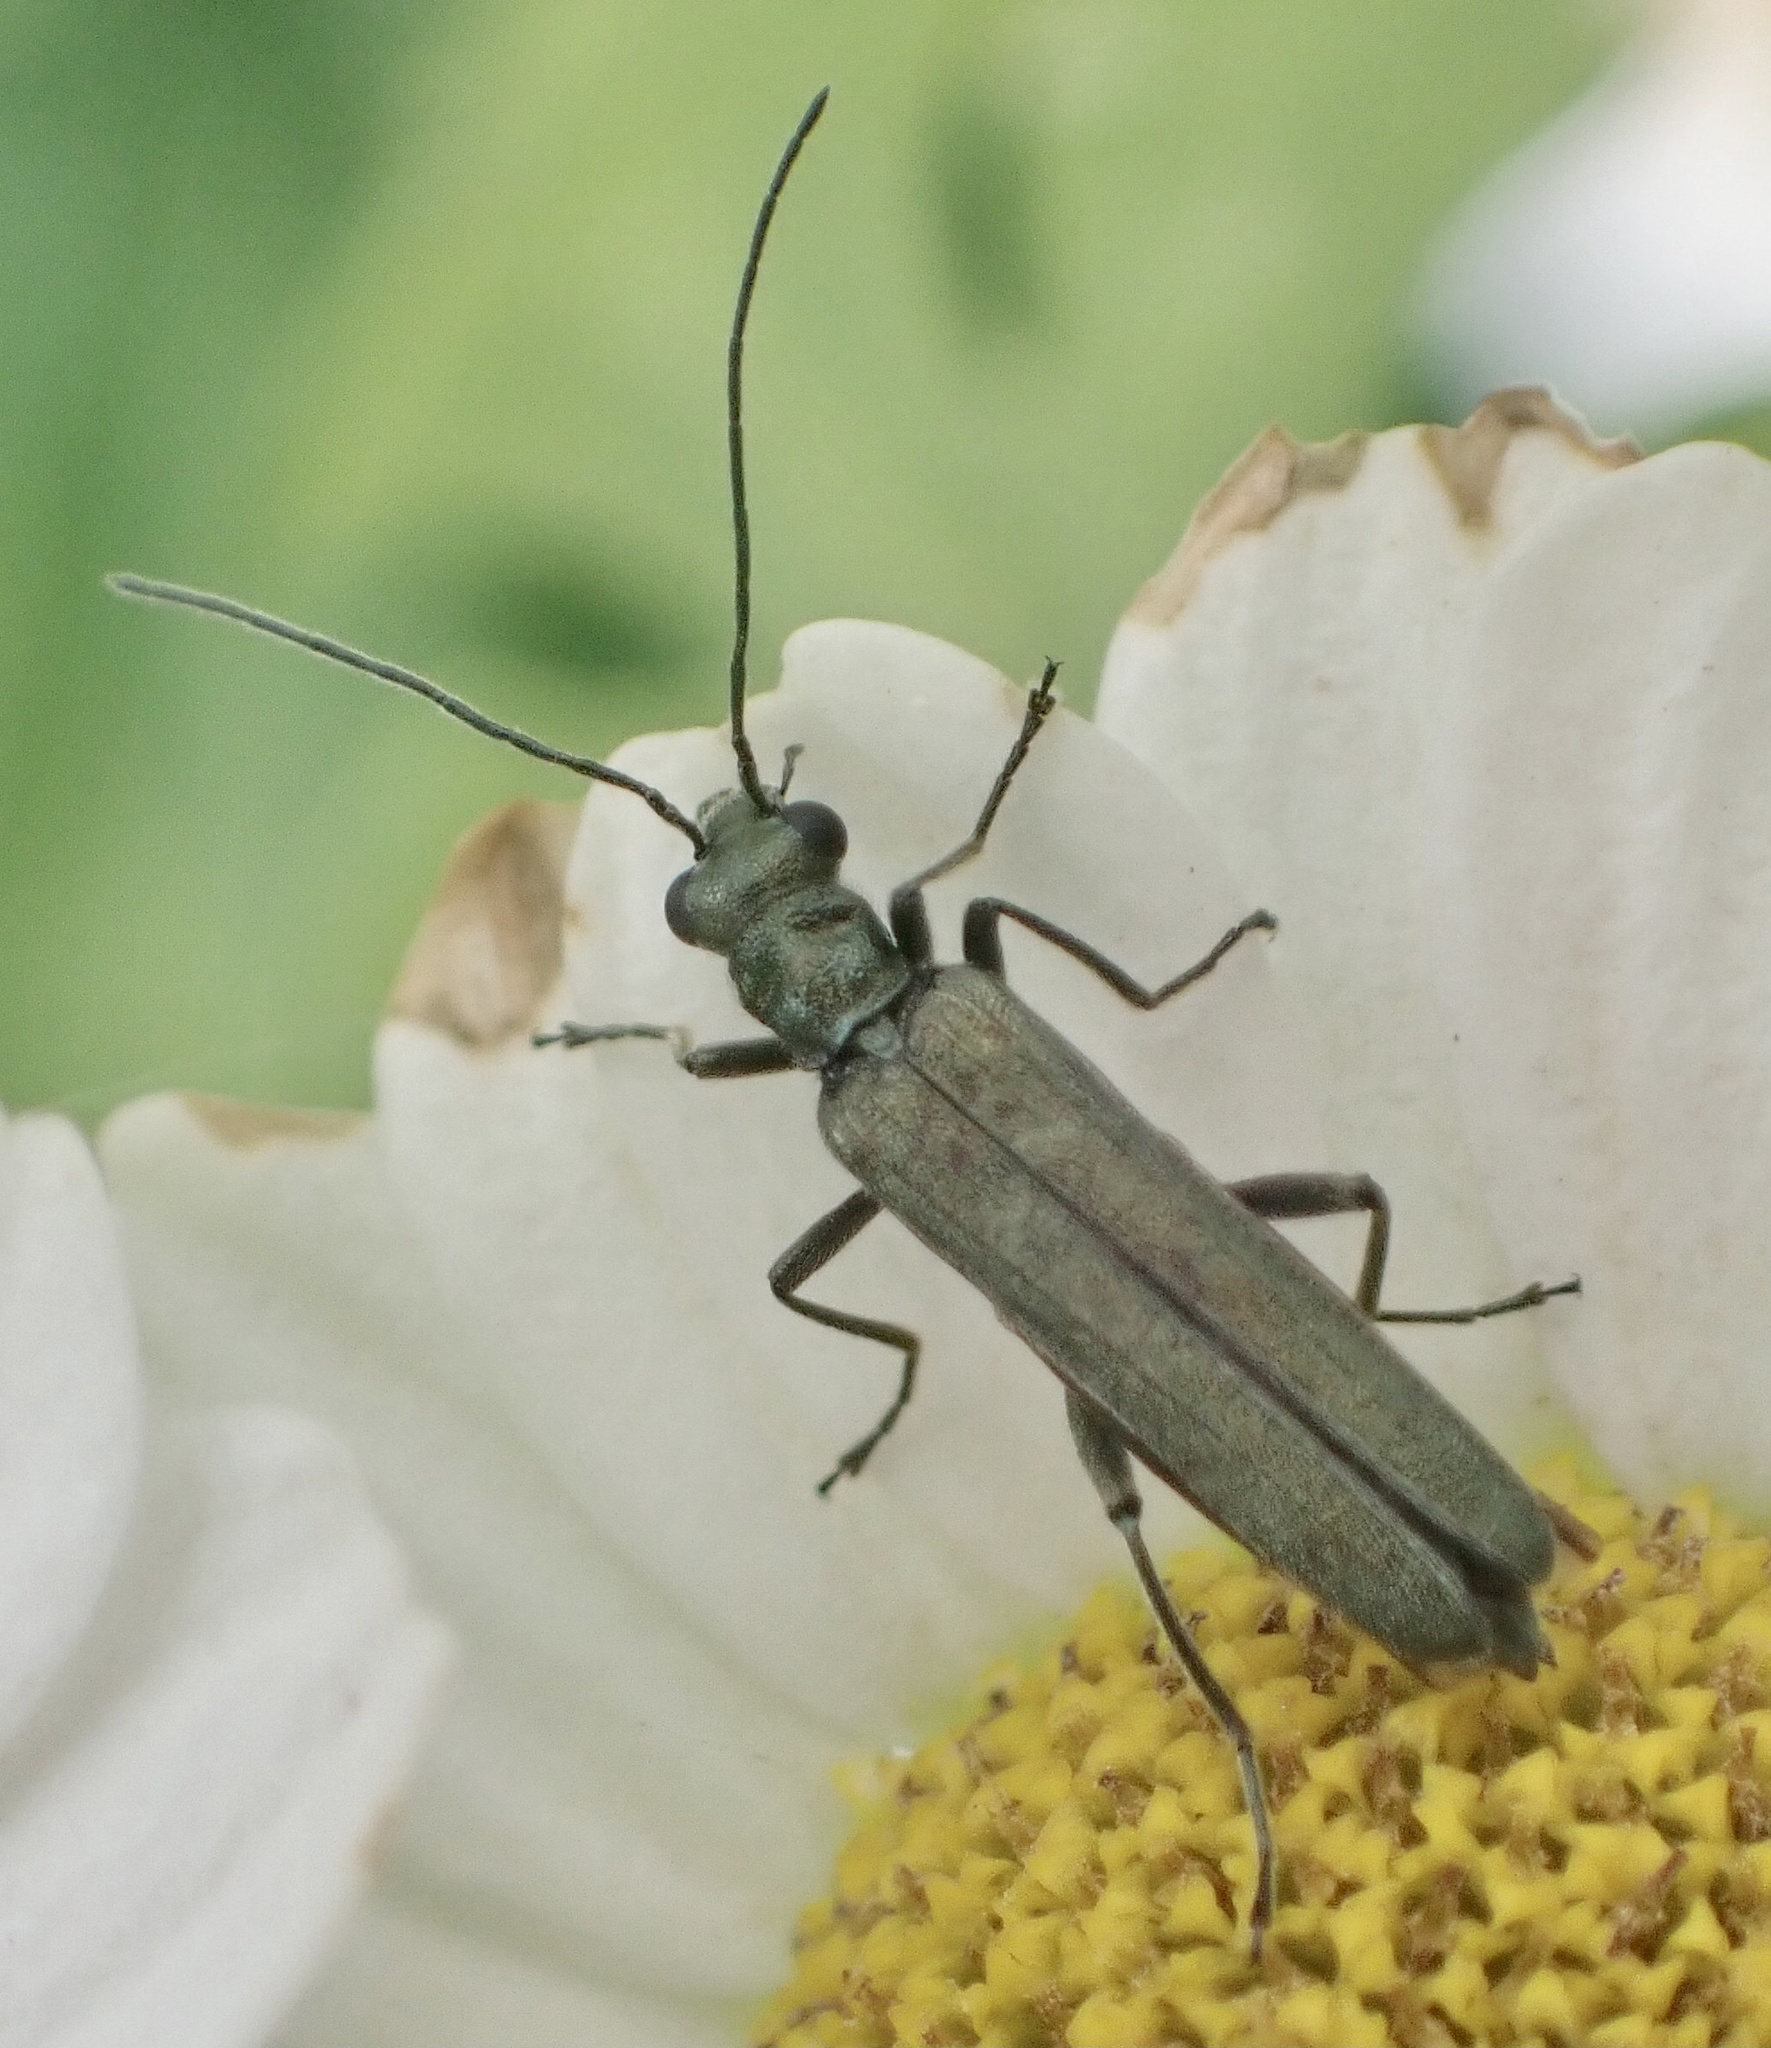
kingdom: Animalia
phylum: Arthropoda
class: Insecta
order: Coleoptera
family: Oedemeridae
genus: Oedemera
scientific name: Oedemera lurida
